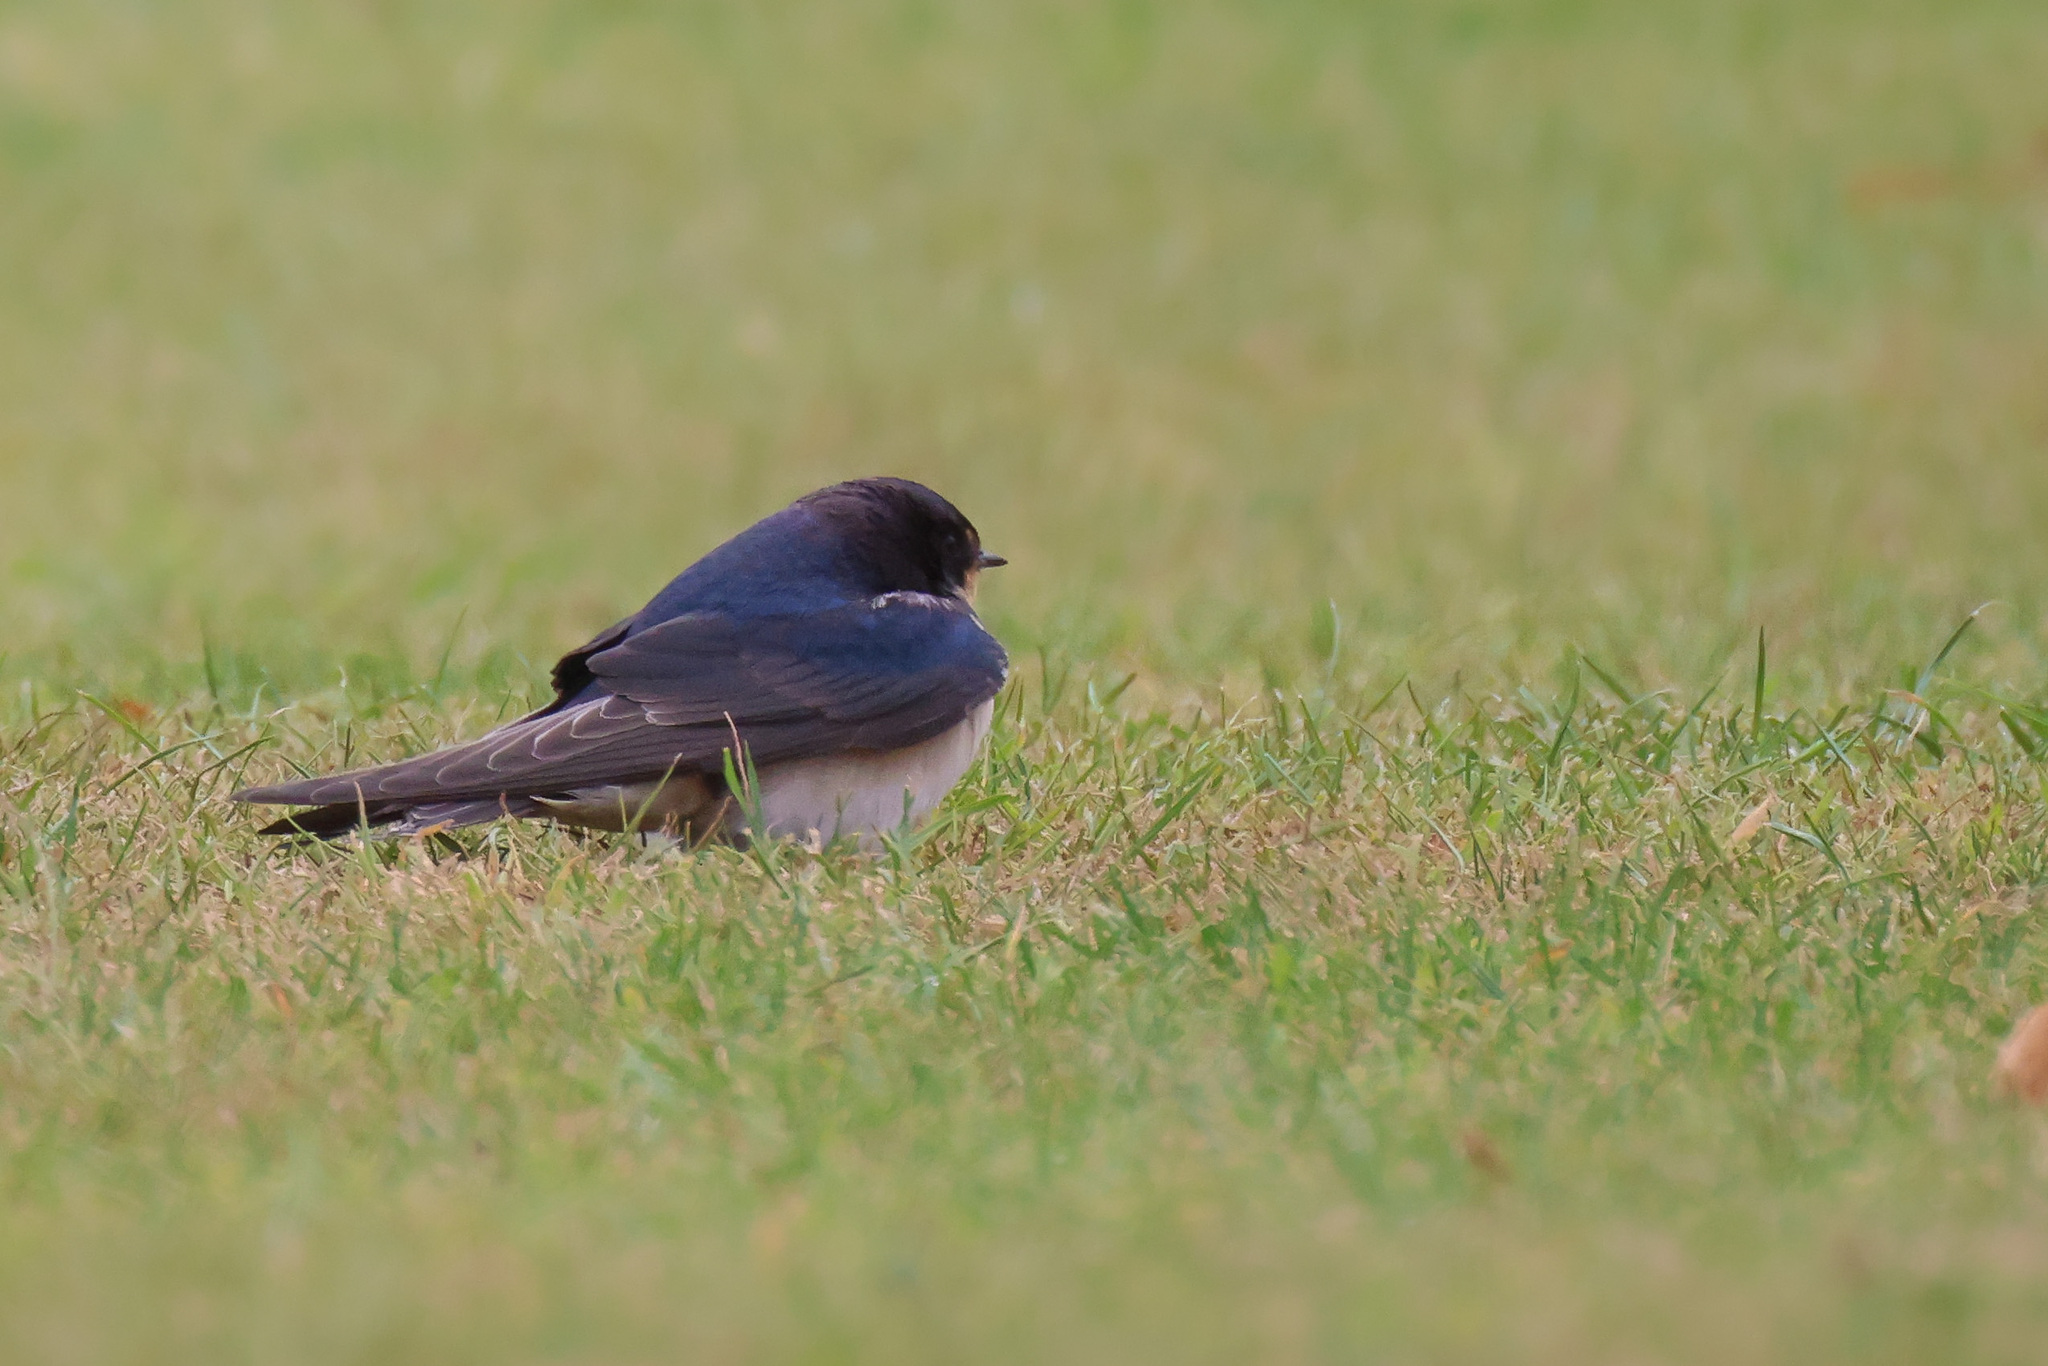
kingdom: Animalia
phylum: Chordata
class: Aves
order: Passeriformes
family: Hirundinidae
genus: Hirundo
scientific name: Hirundo rustica
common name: Barn swallow
